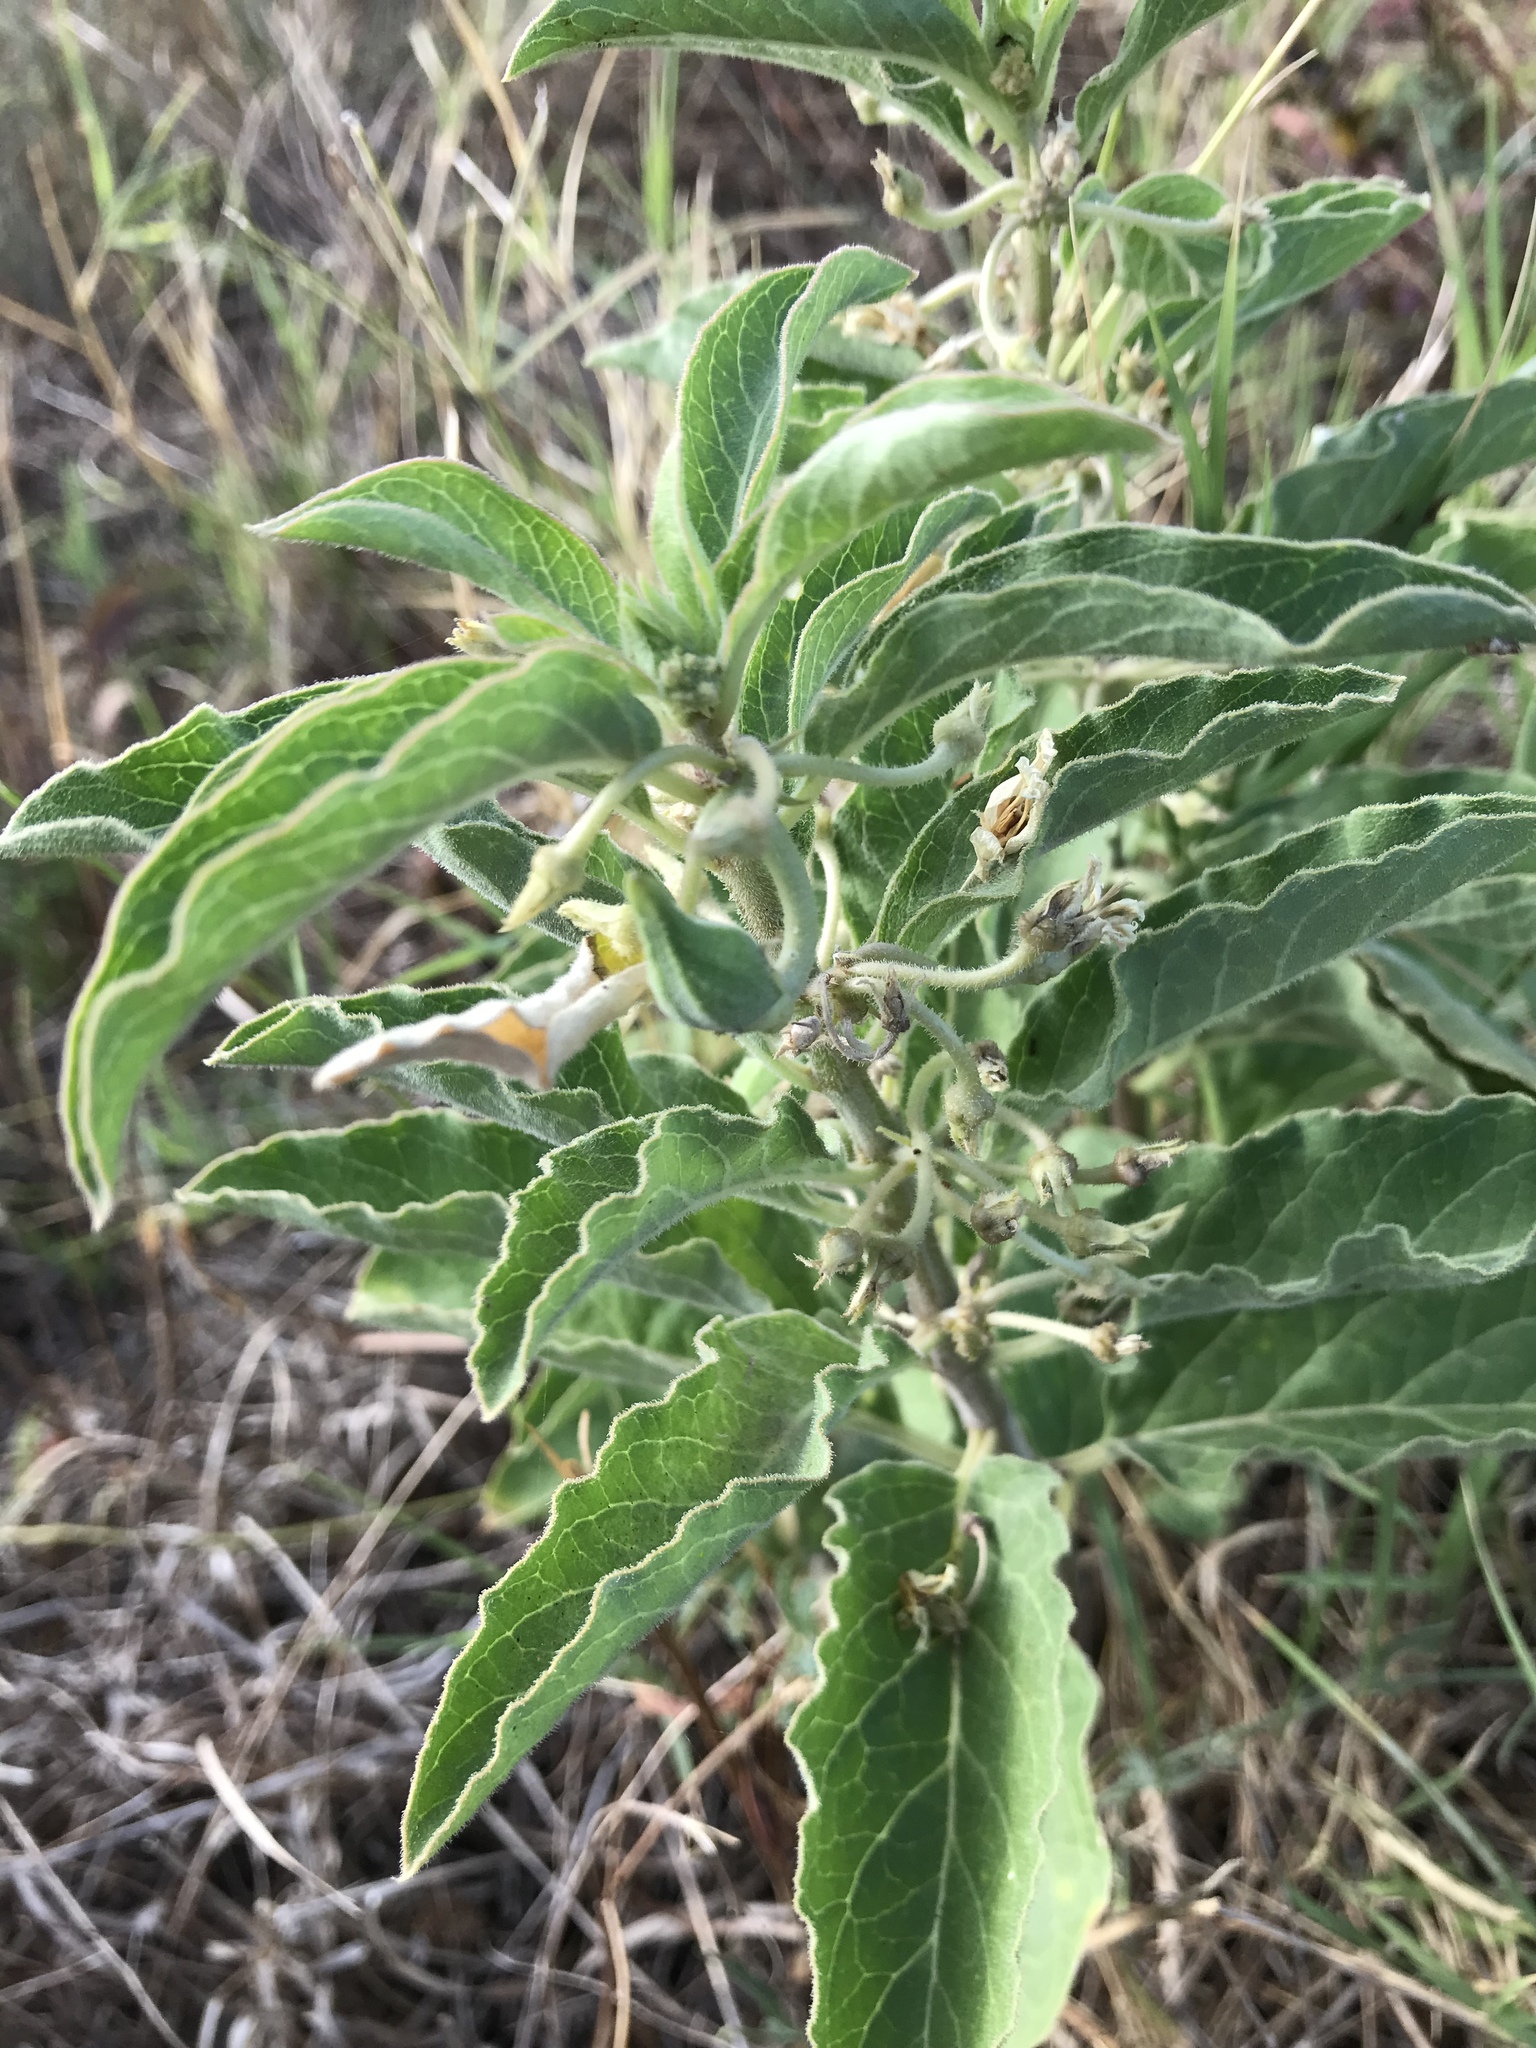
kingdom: Plantae
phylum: Tracheophyta
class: Magnoliopsida
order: Gentianales
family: Apocynaceae
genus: Asclepias
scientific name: Asclepias oenotheroides
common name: Zizotes milkweed
